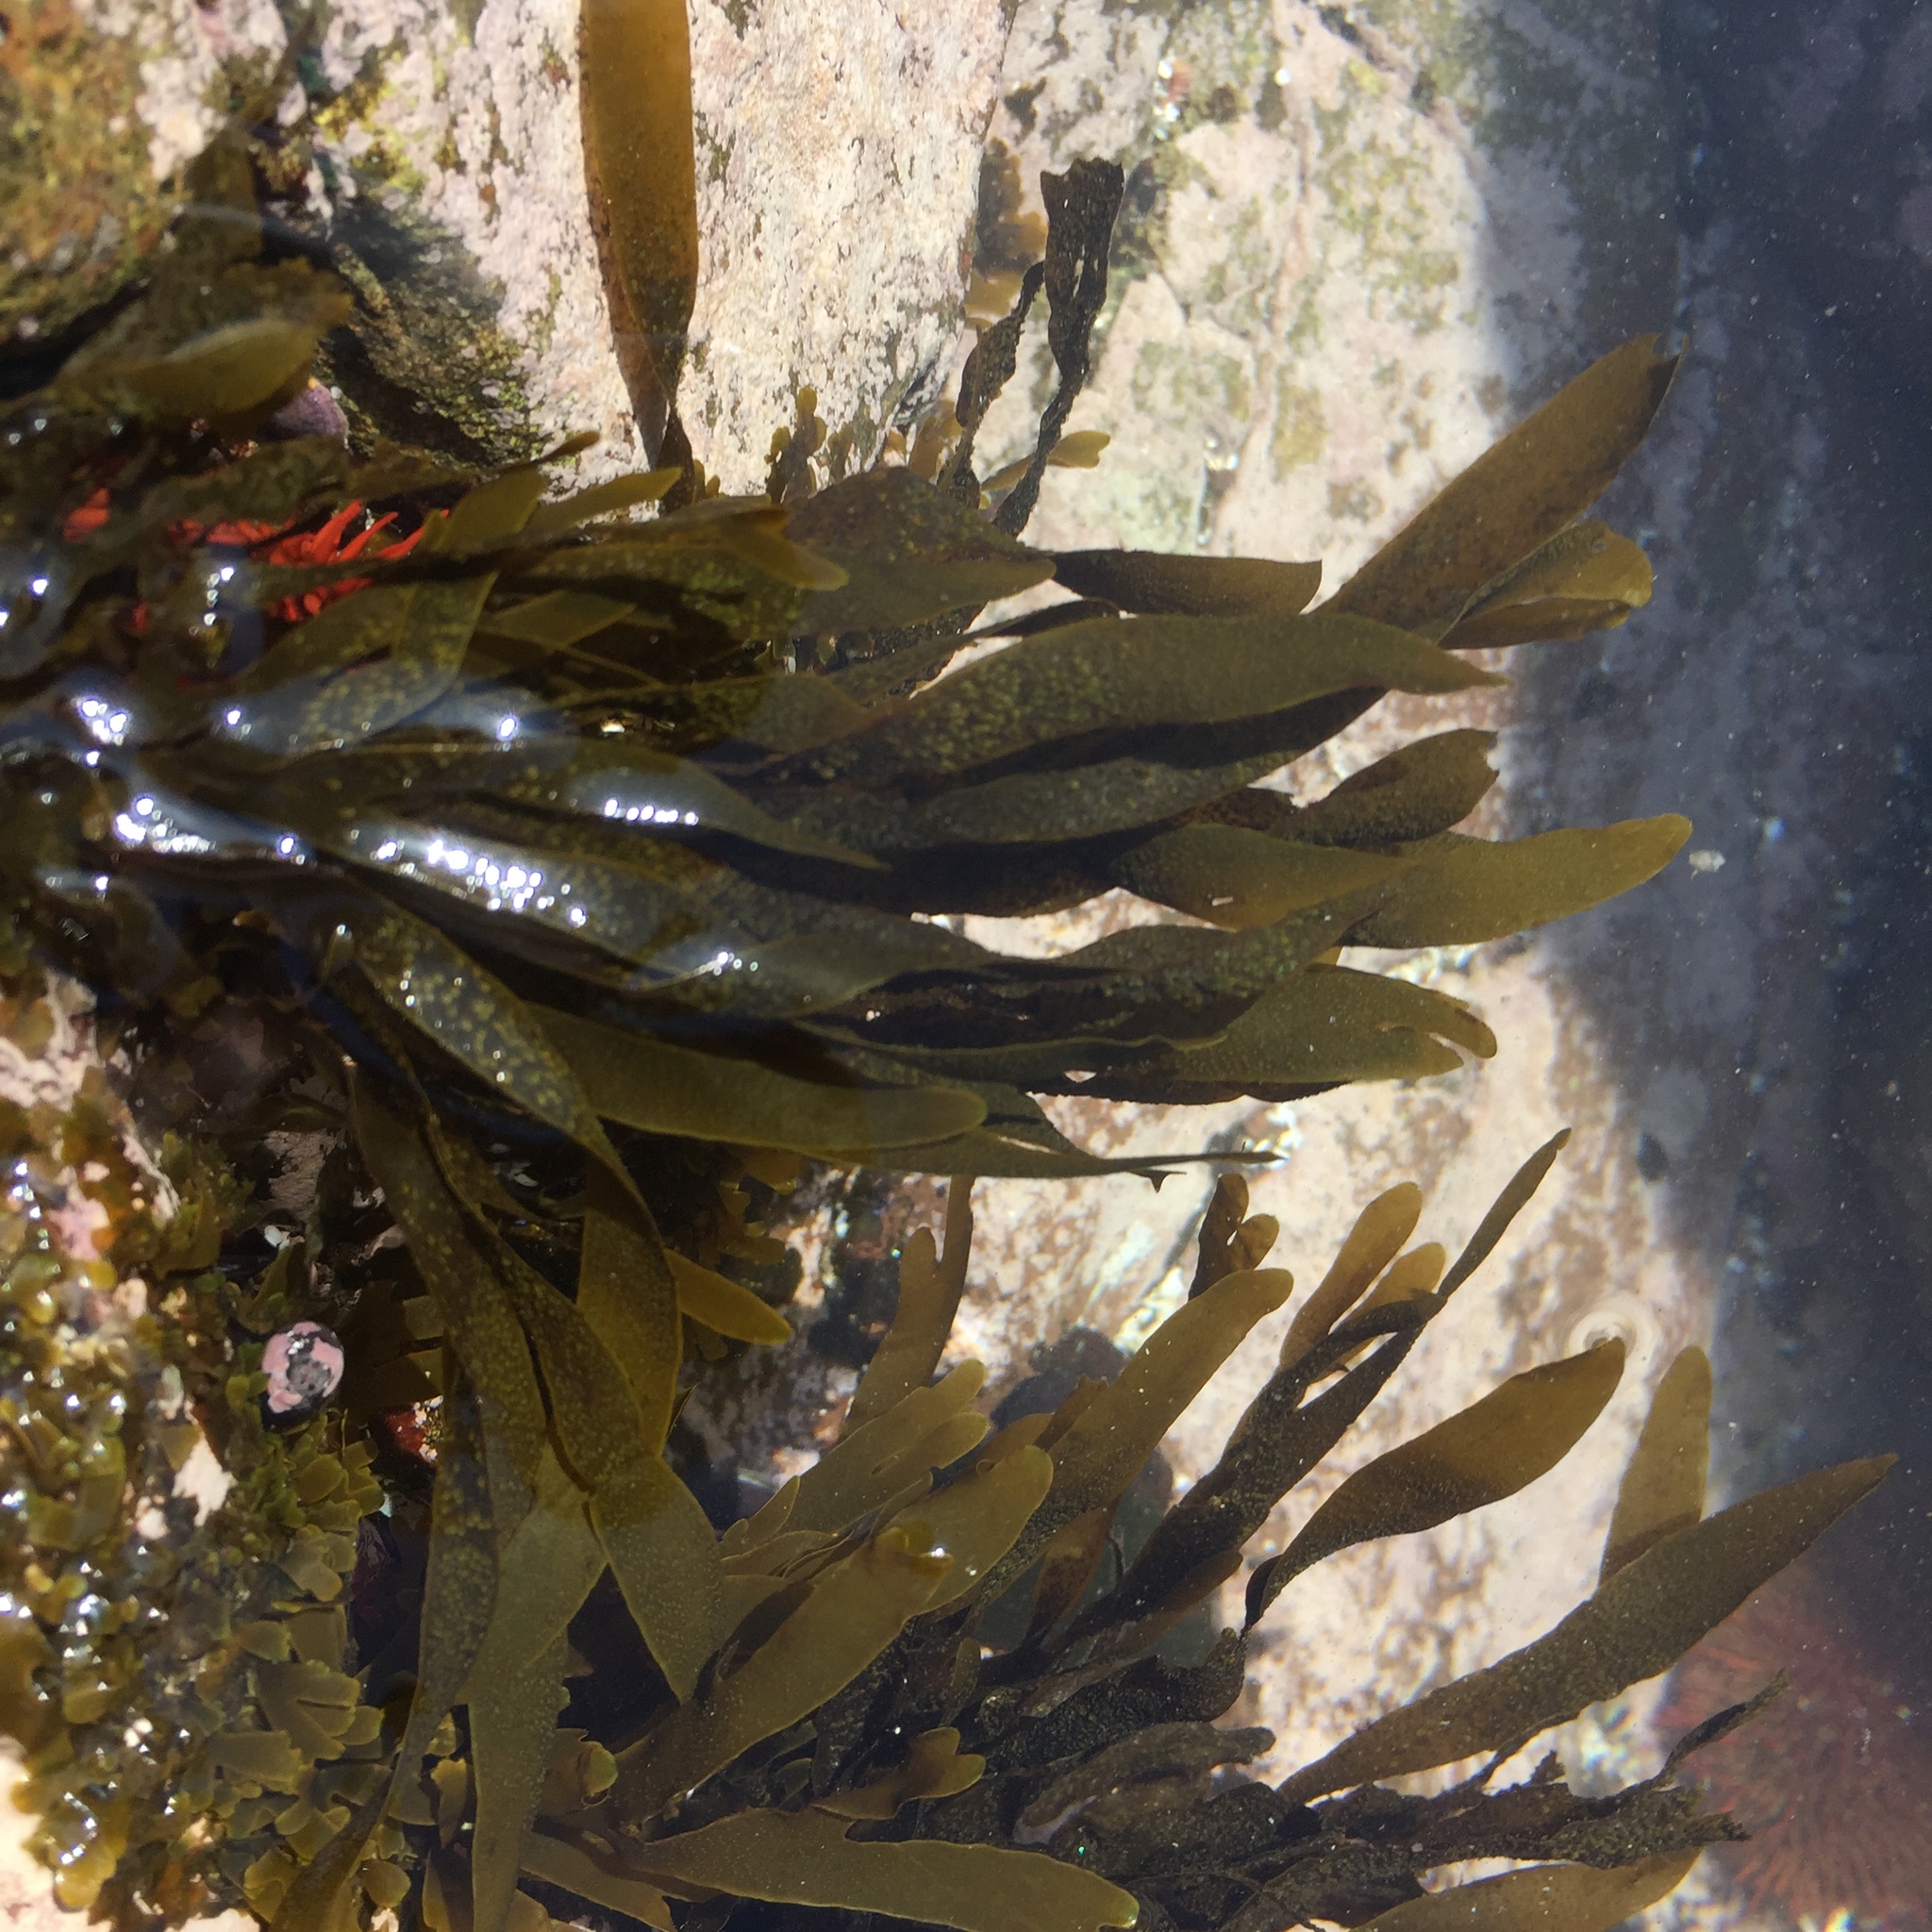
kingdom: Chromista
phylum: Ochrophyta
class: Phaeophyceae
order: Dictyotales
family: Dictyotaceae
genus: Dictyota
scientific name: Dictyota kunthii
